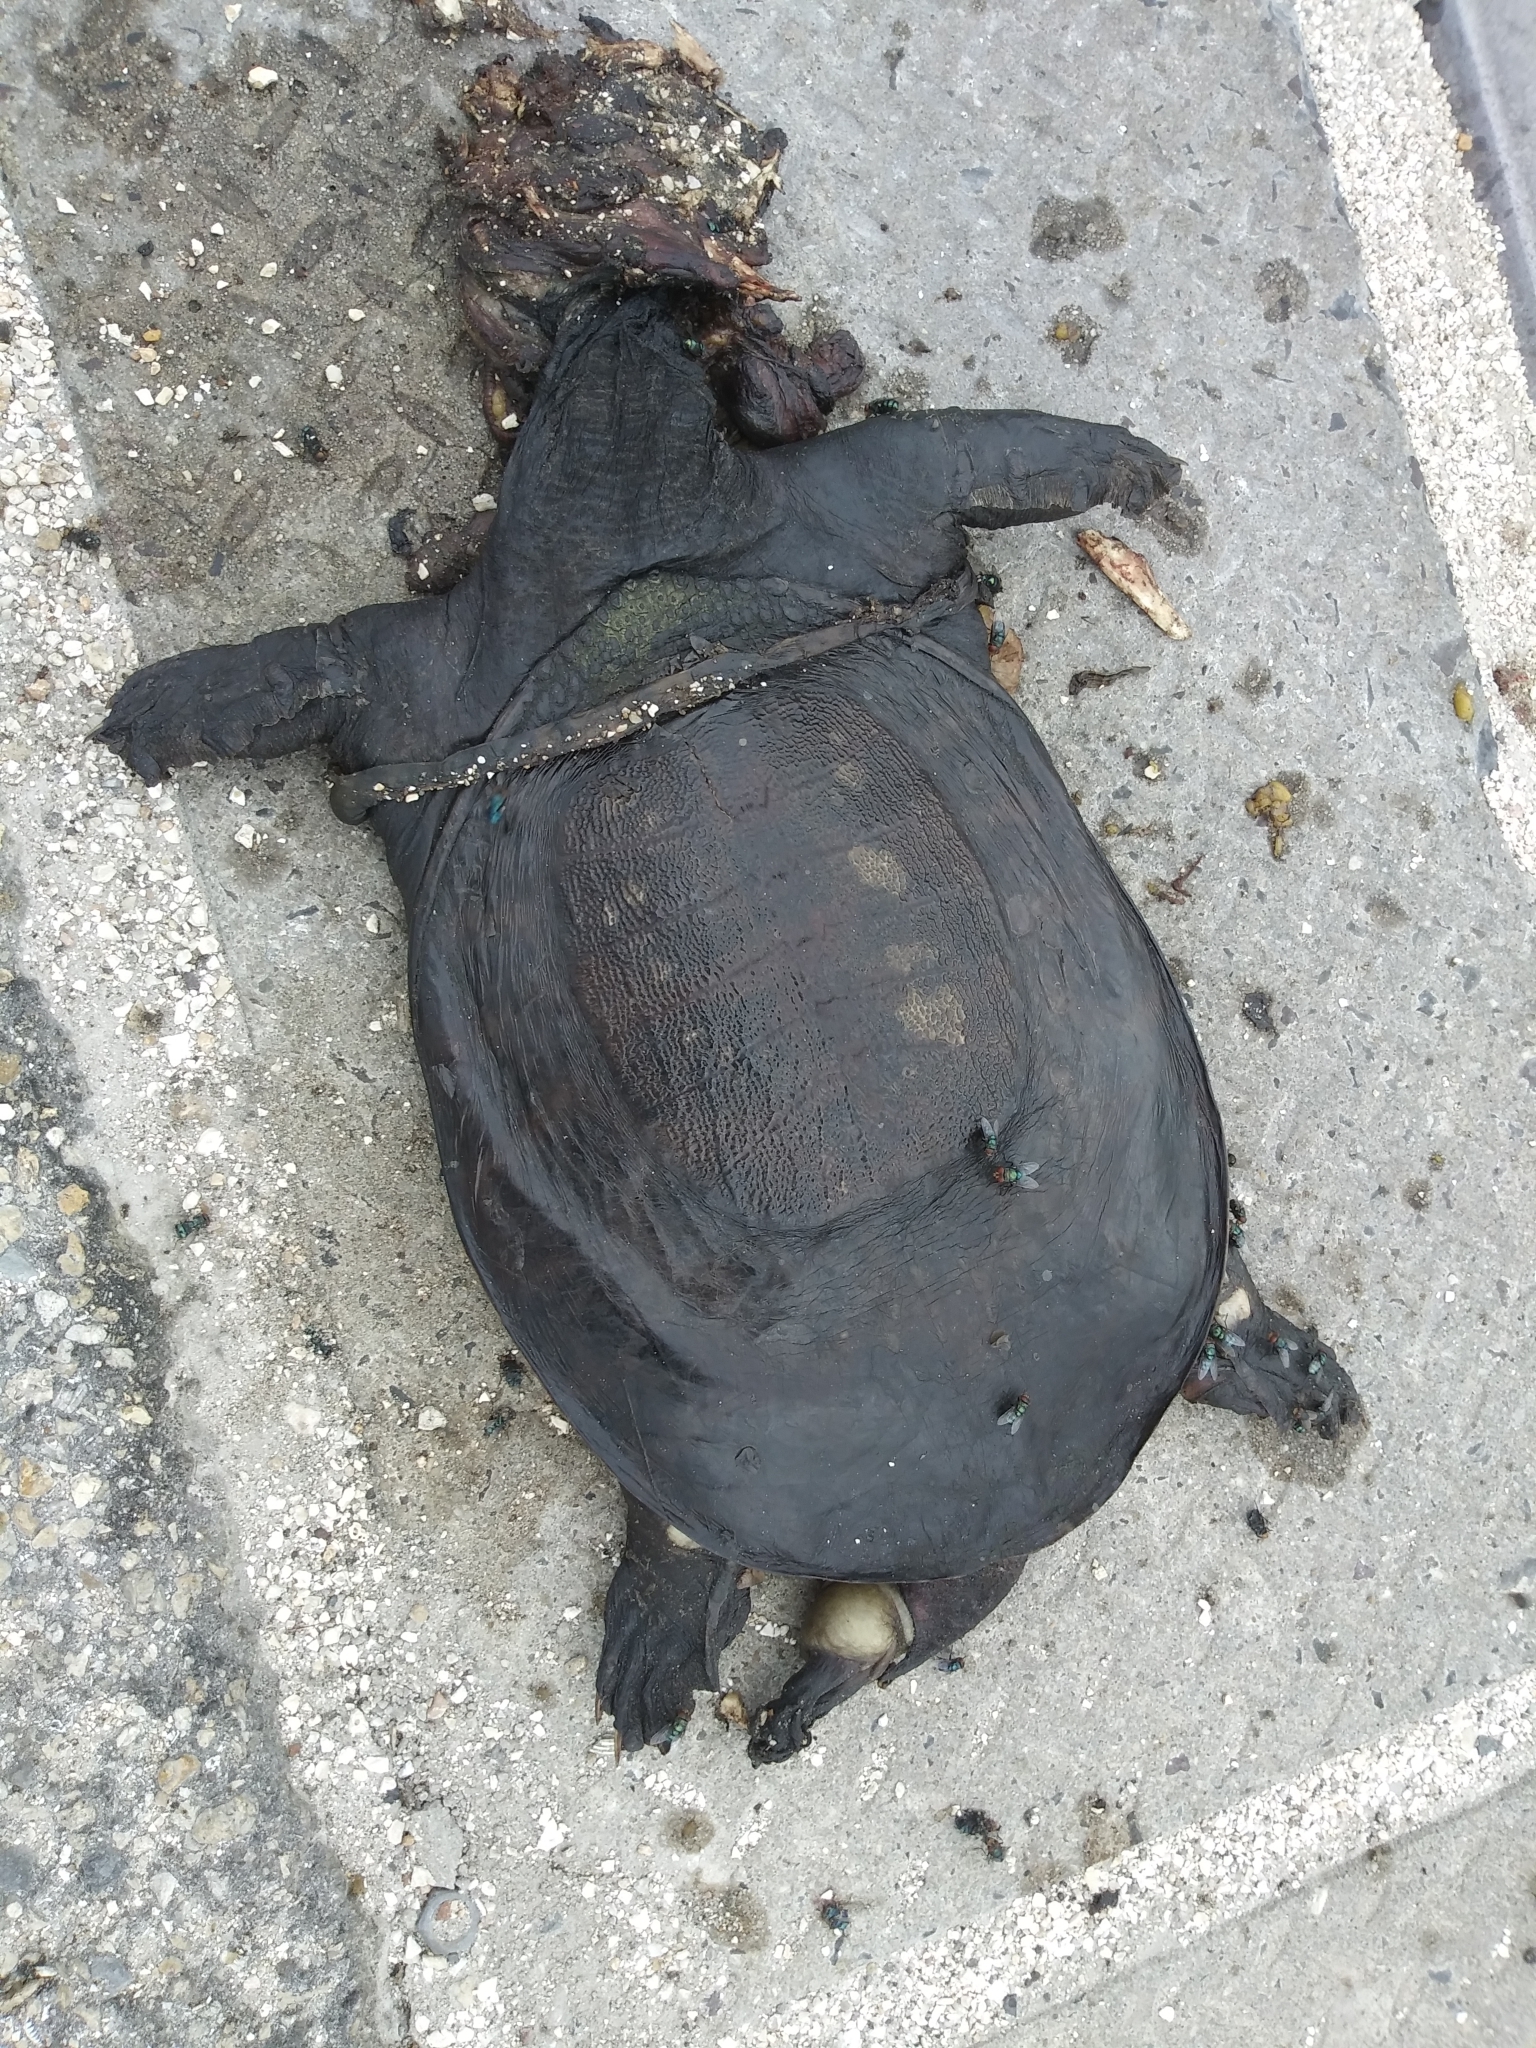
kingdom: Animalia
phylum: Chordata
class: Testudines
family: Trionychidae
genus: Apalone
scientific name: Apalone ferox
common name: Florida softshell turtle
